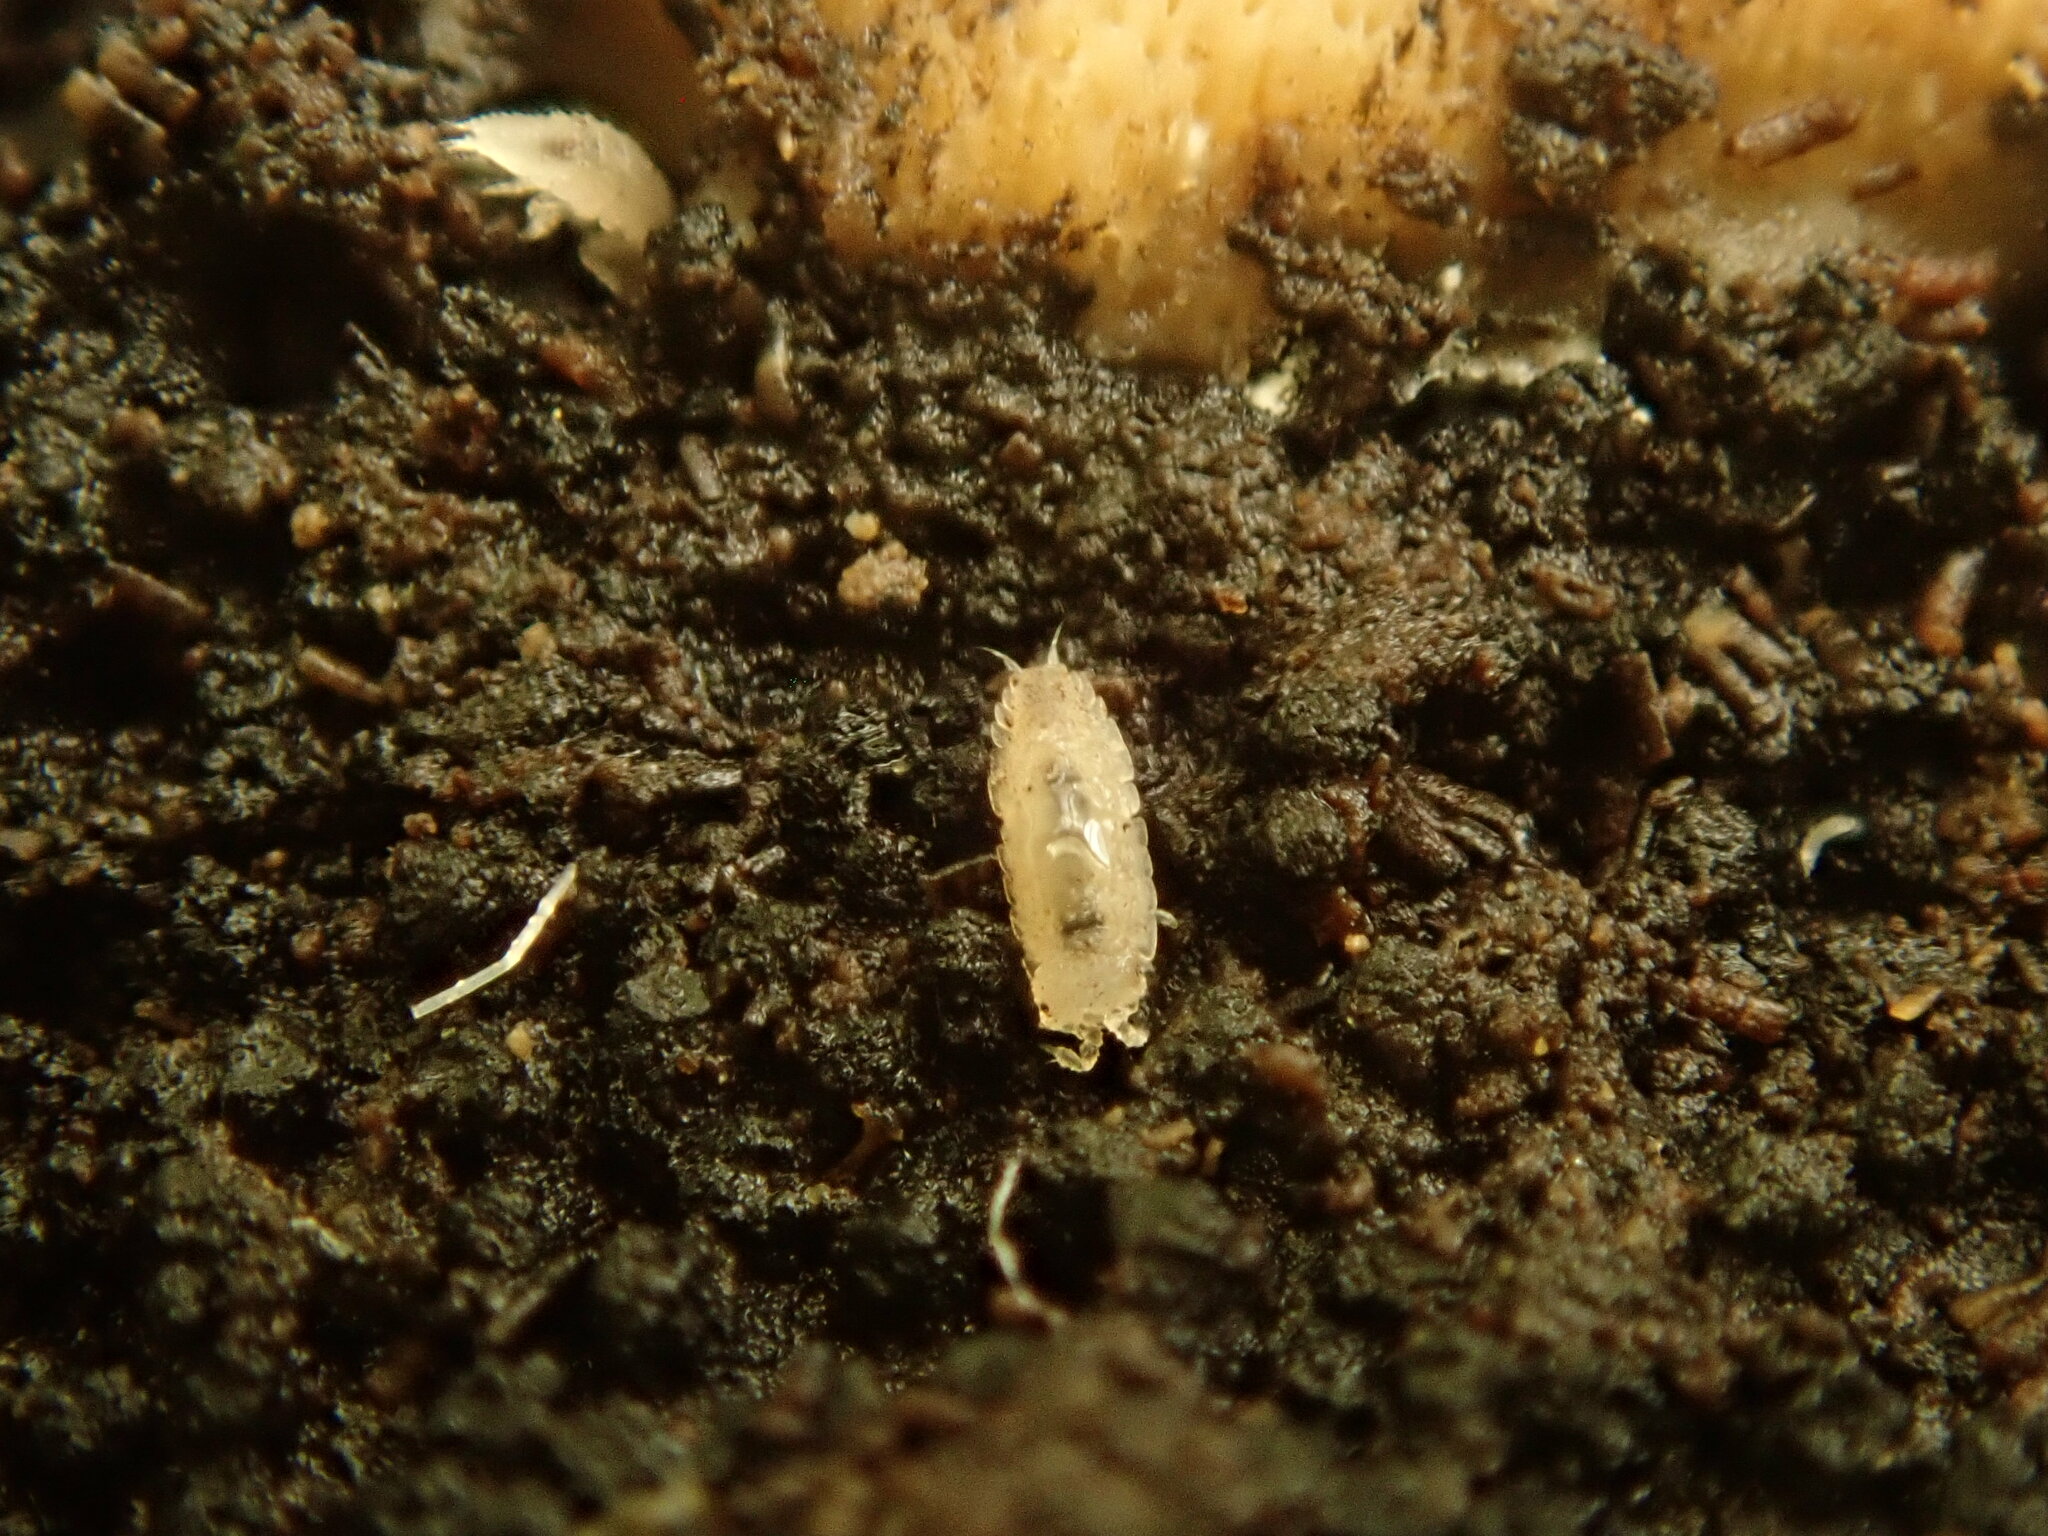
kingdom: Animalia
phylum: Arthropoda
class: Malacostraca
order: Isopoda
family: Trichoniscidae
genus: Haplophthalmus
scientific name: Haplophthalmus danicus
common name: Pillbug
